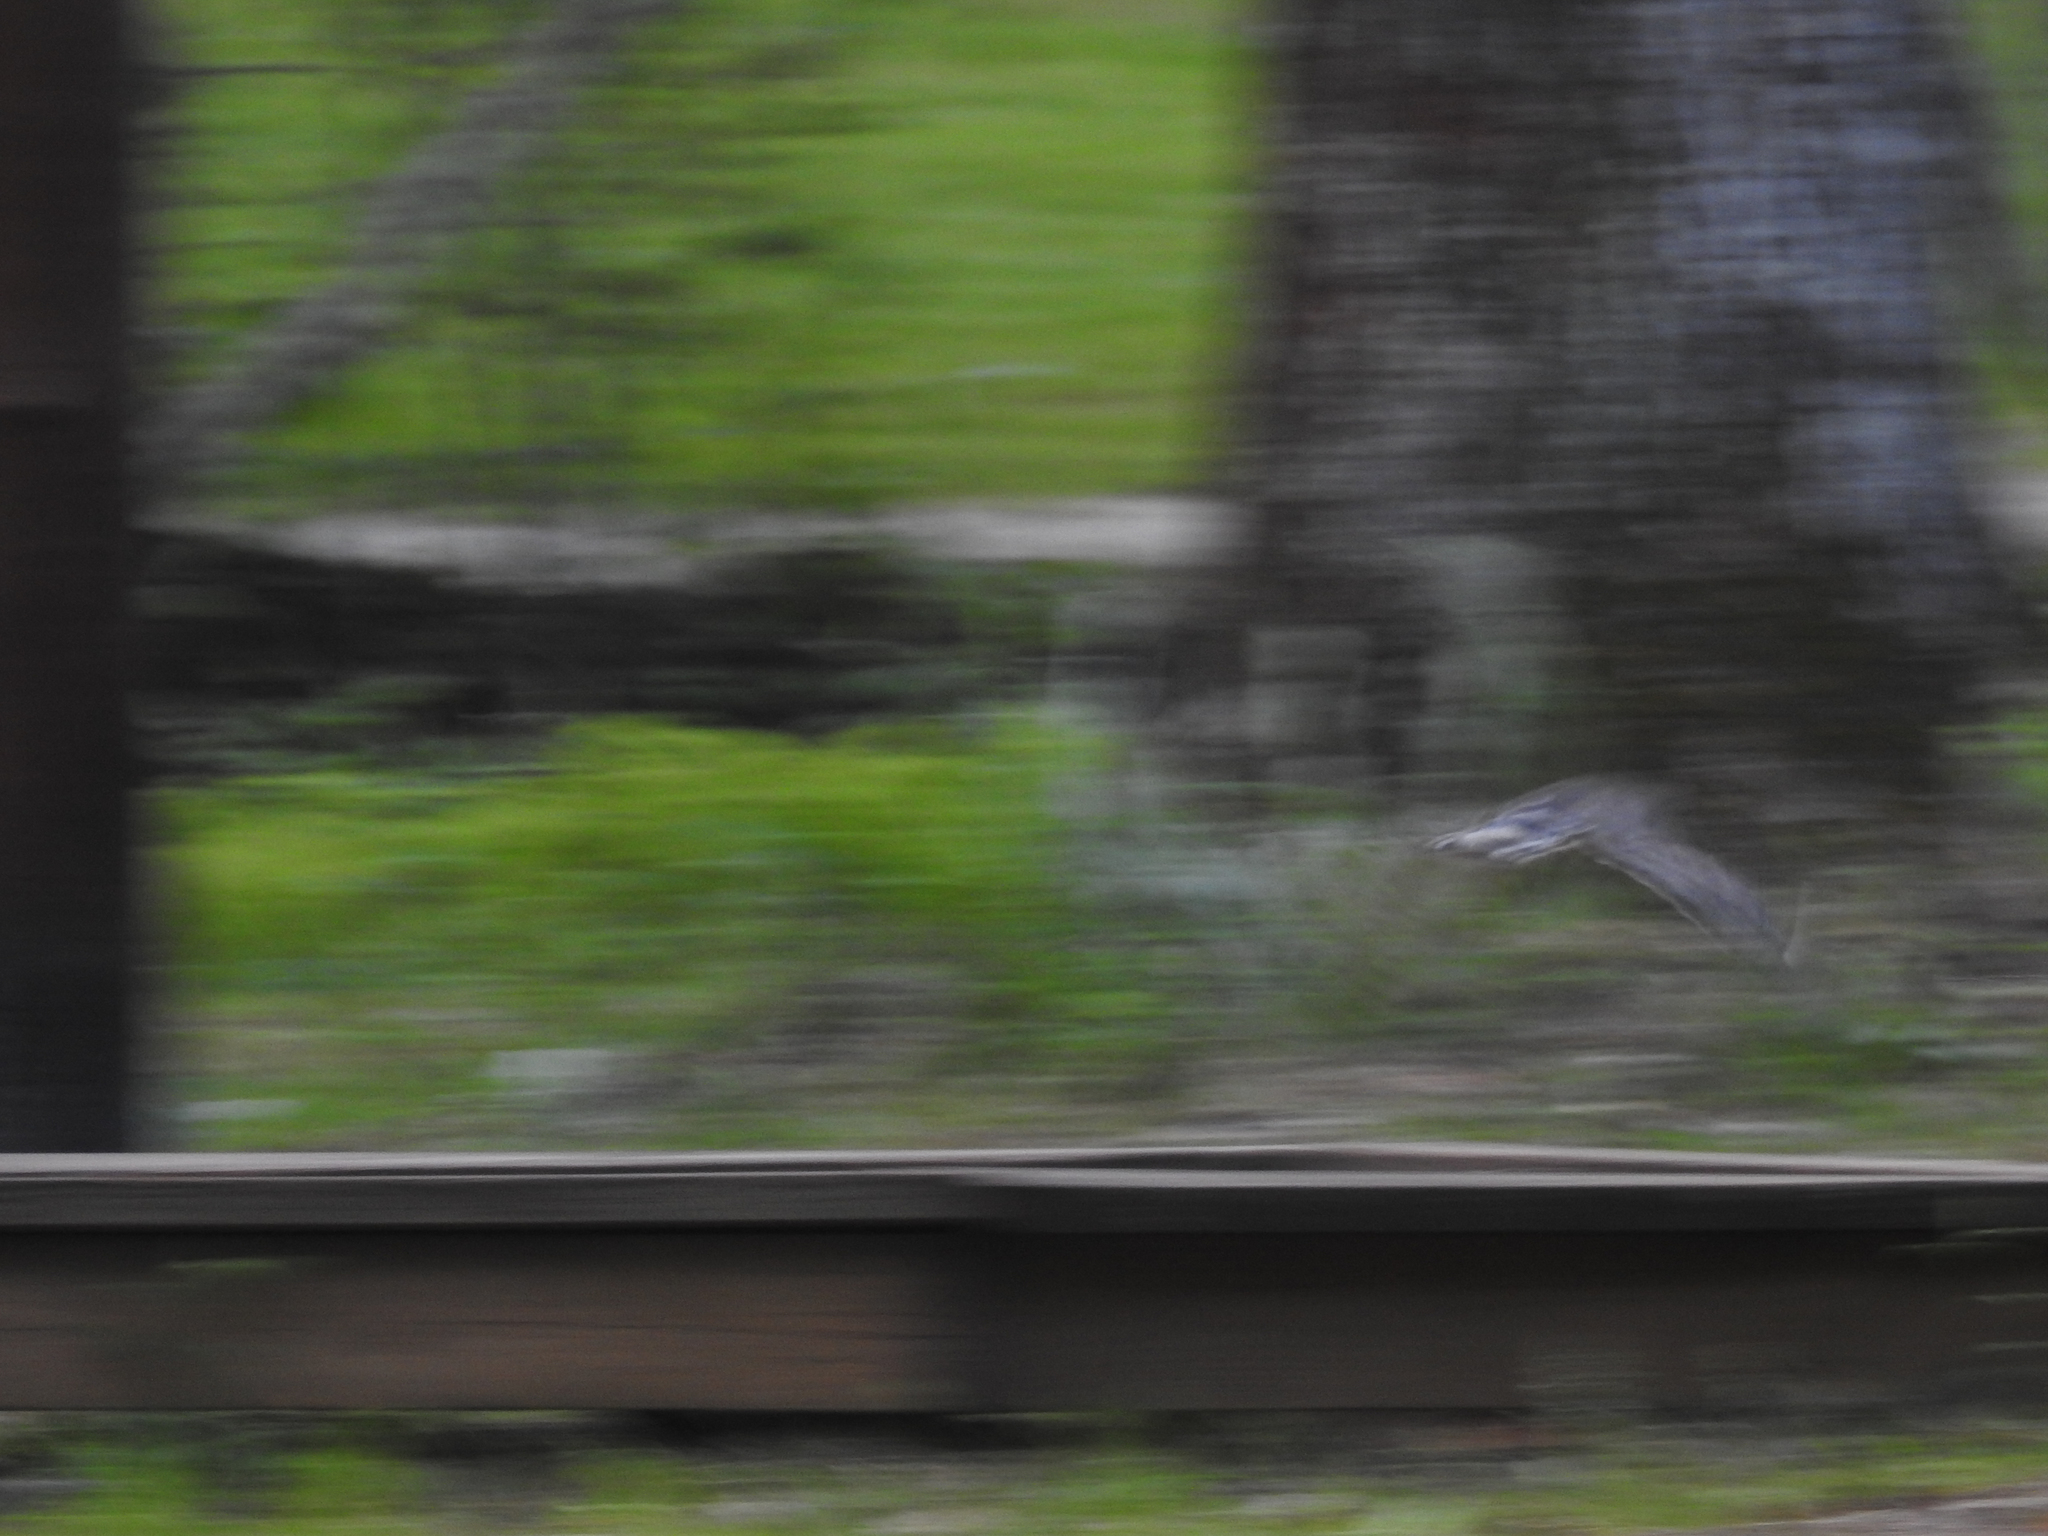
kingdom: Animalia
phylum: Chordata
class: Aves
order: Accipitriformes
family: Accipitridae
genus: Buteo
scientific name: Buteo platypterus
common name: Broad-winged hawk
